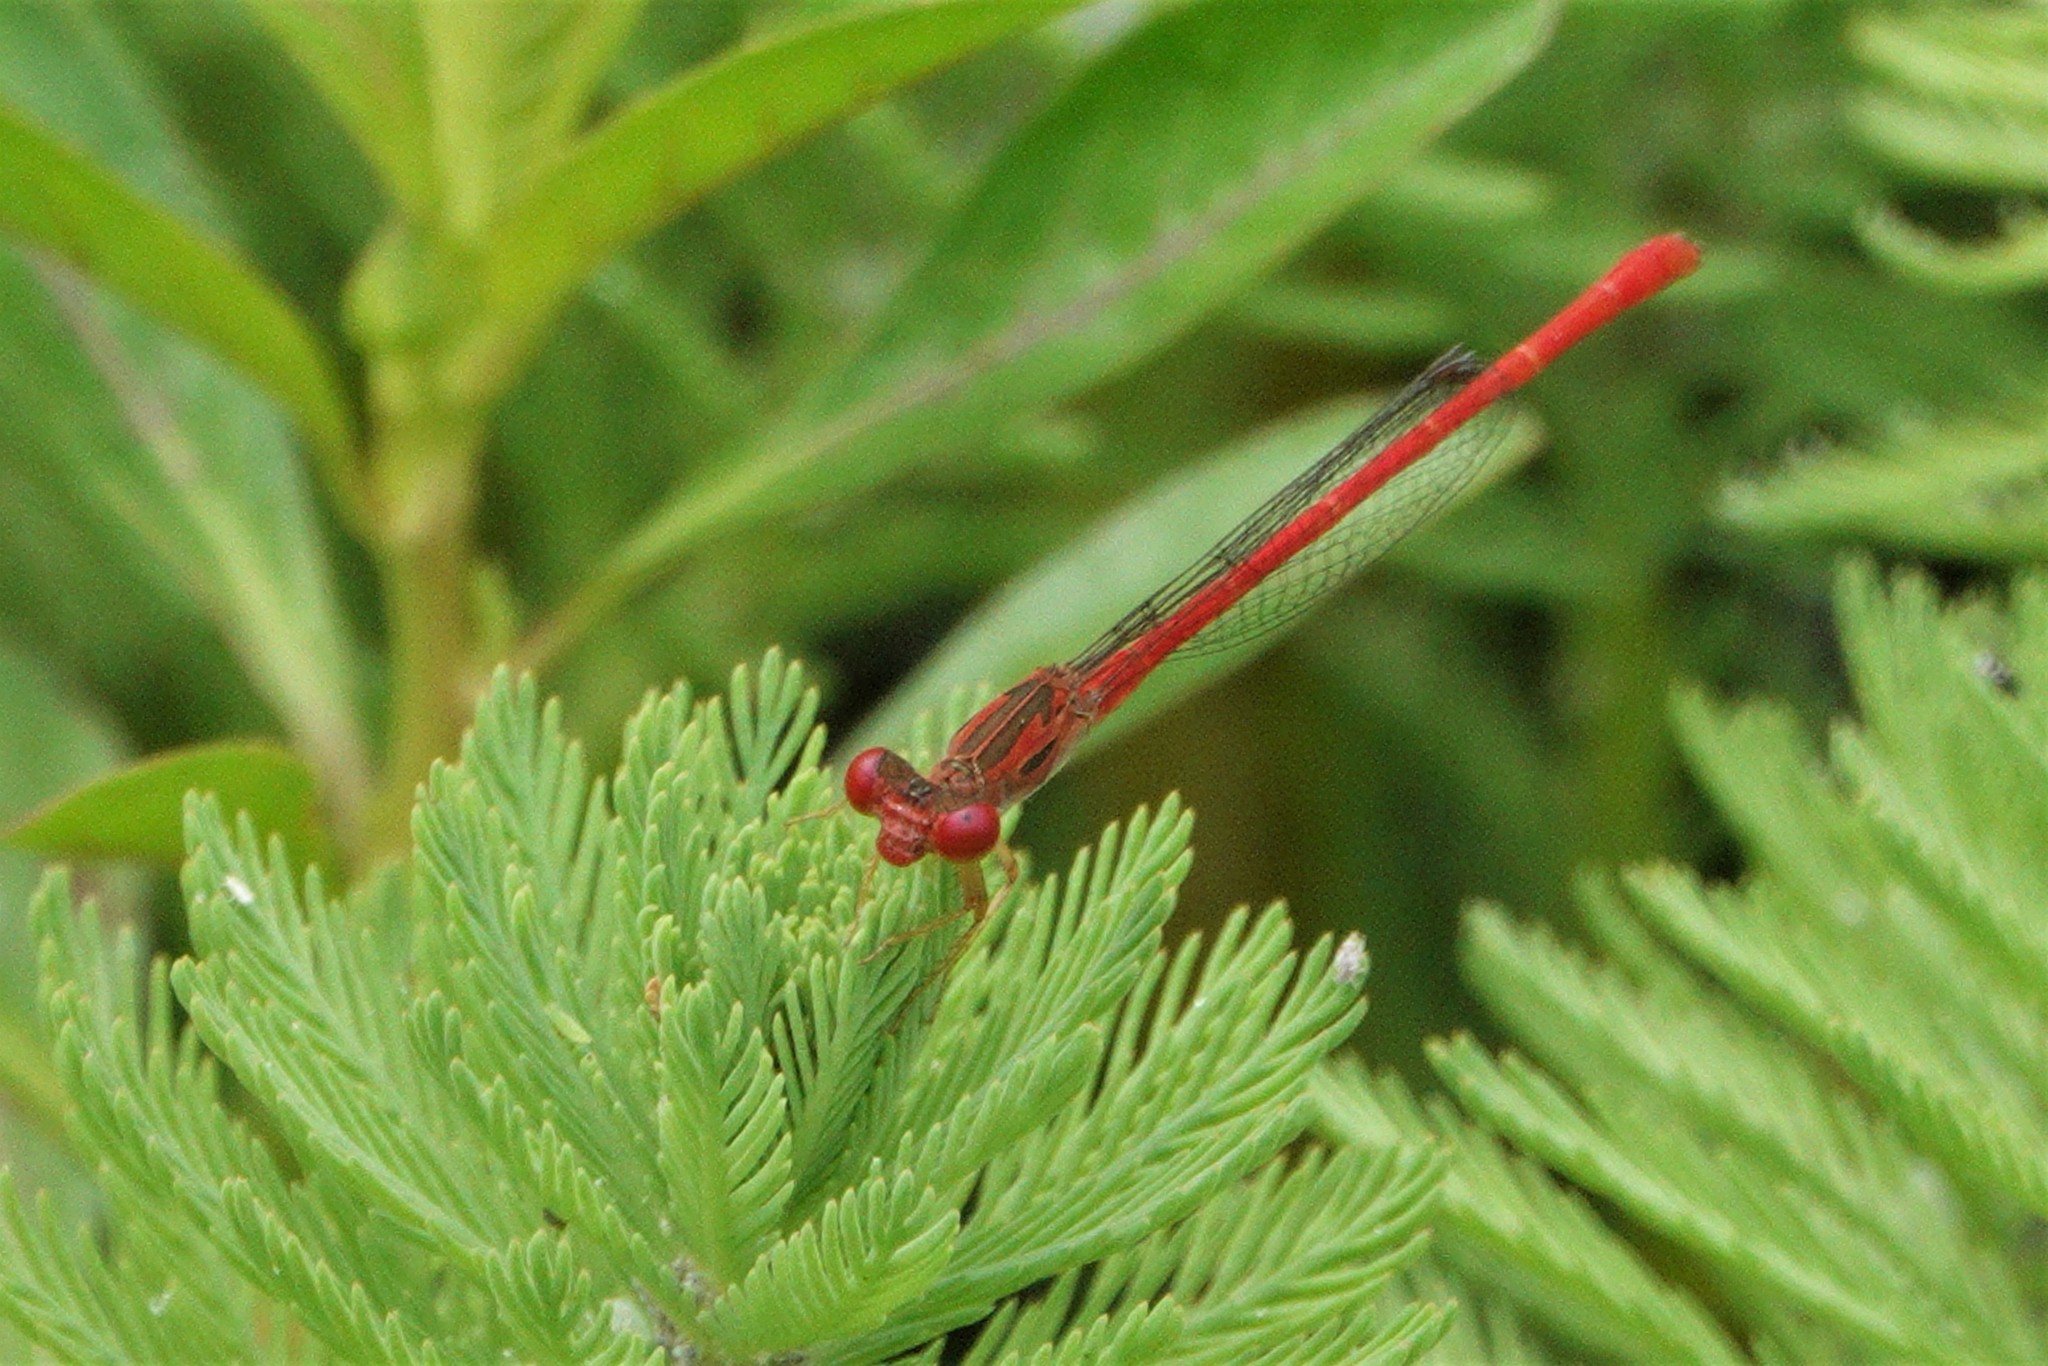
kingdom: Animalia
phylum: Arthropoda
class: Insecta
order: Odonata
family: Coenagrionidae
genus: Telebasis
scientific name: Telebasis byersi
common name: Duckweed firetail
